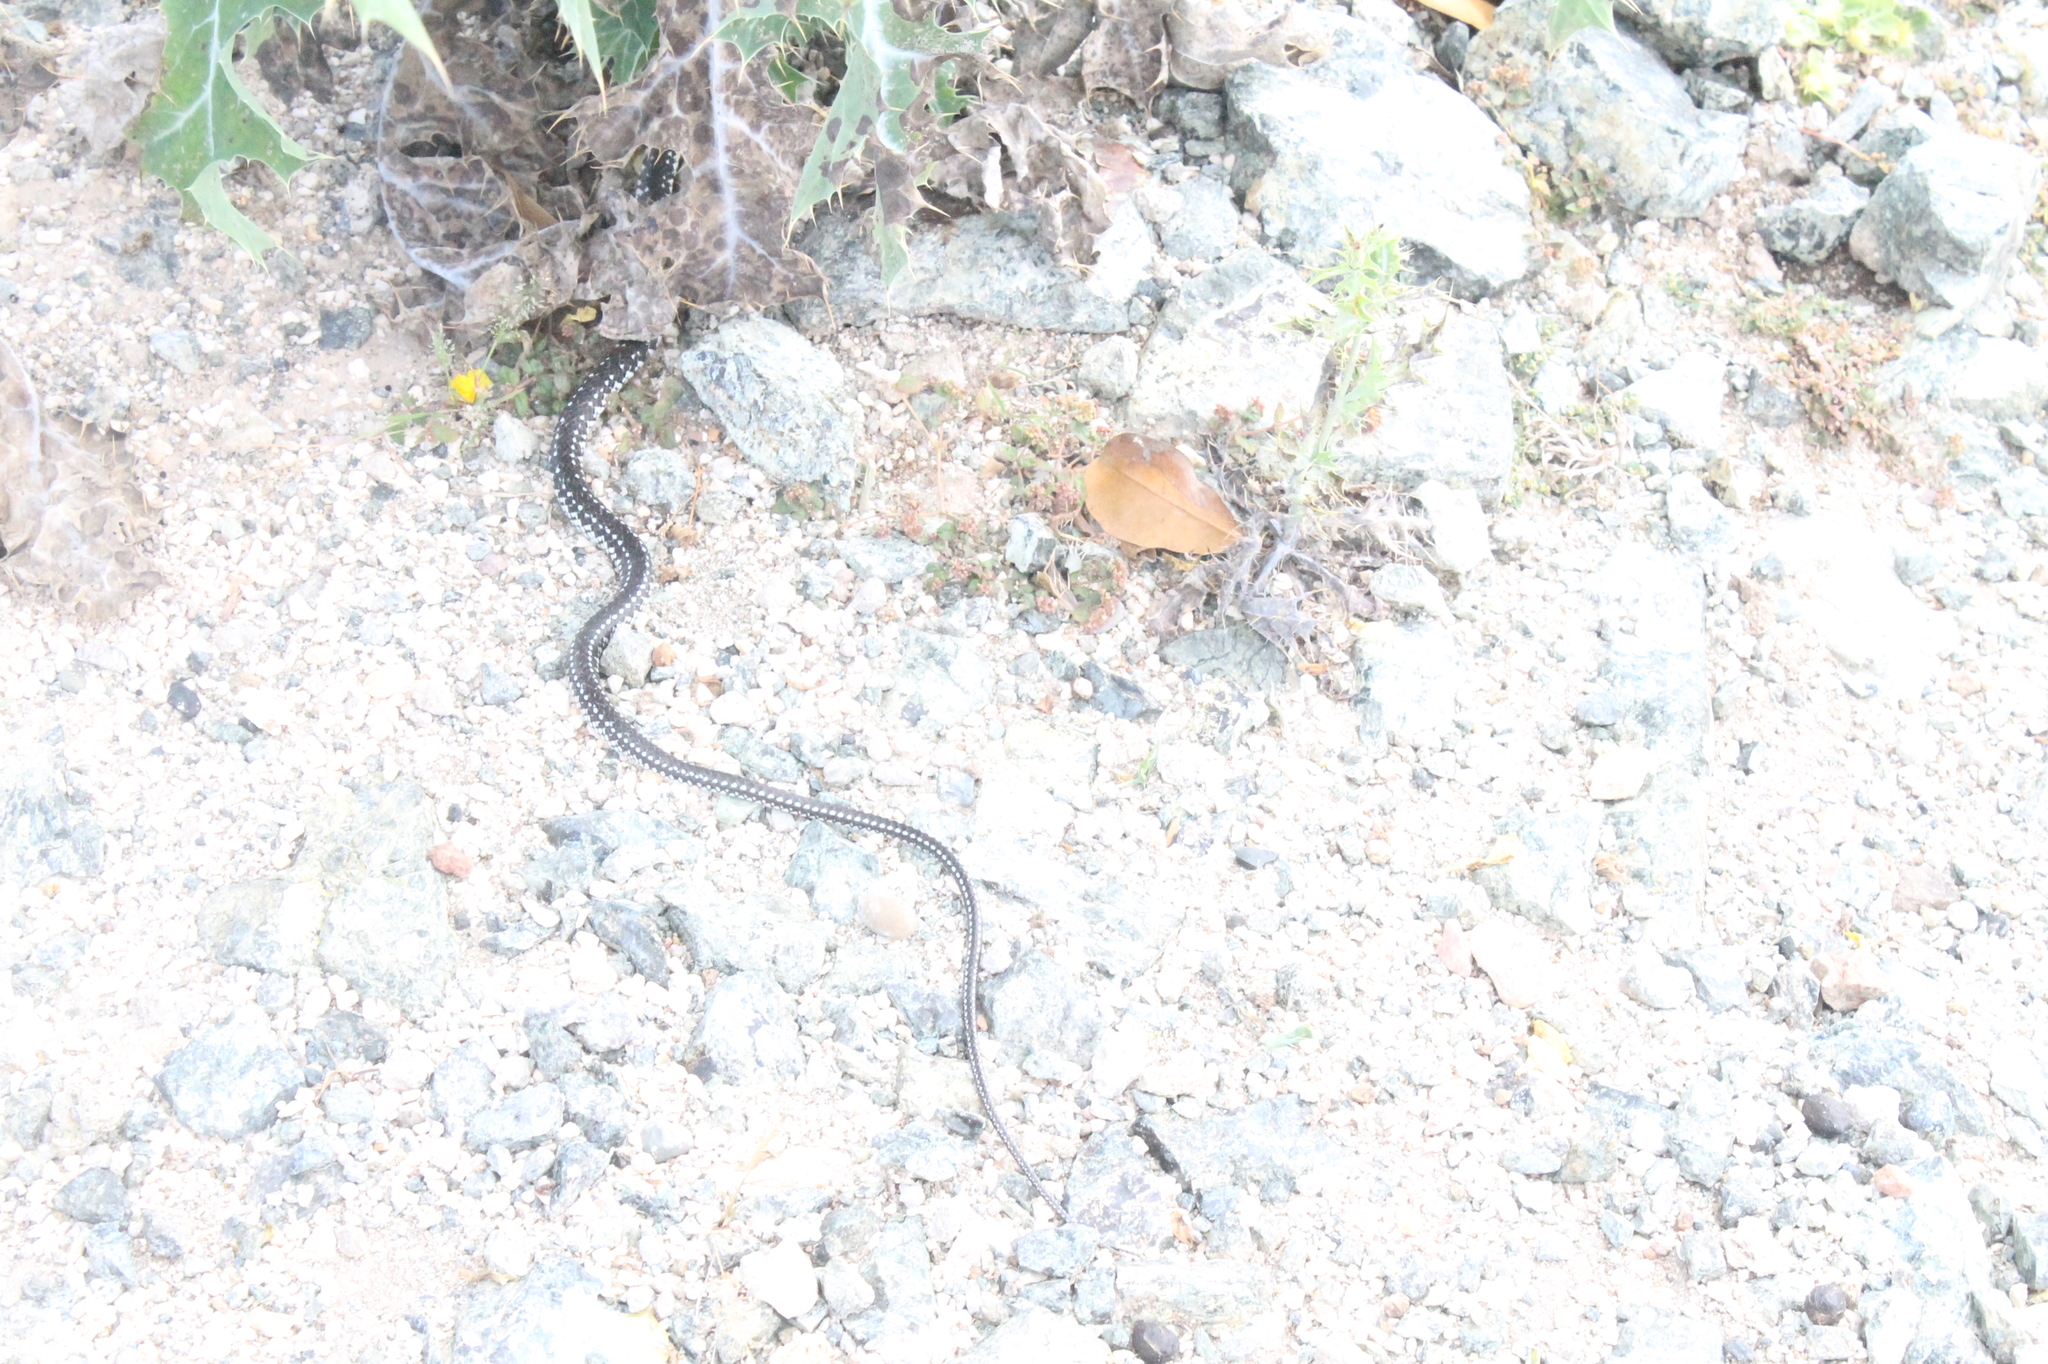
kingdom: Animalia
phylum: Chordata
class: Squamata
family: Colubridae
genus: Caraiba
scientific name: Caraiba andreae
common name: Cuban lesser racer
